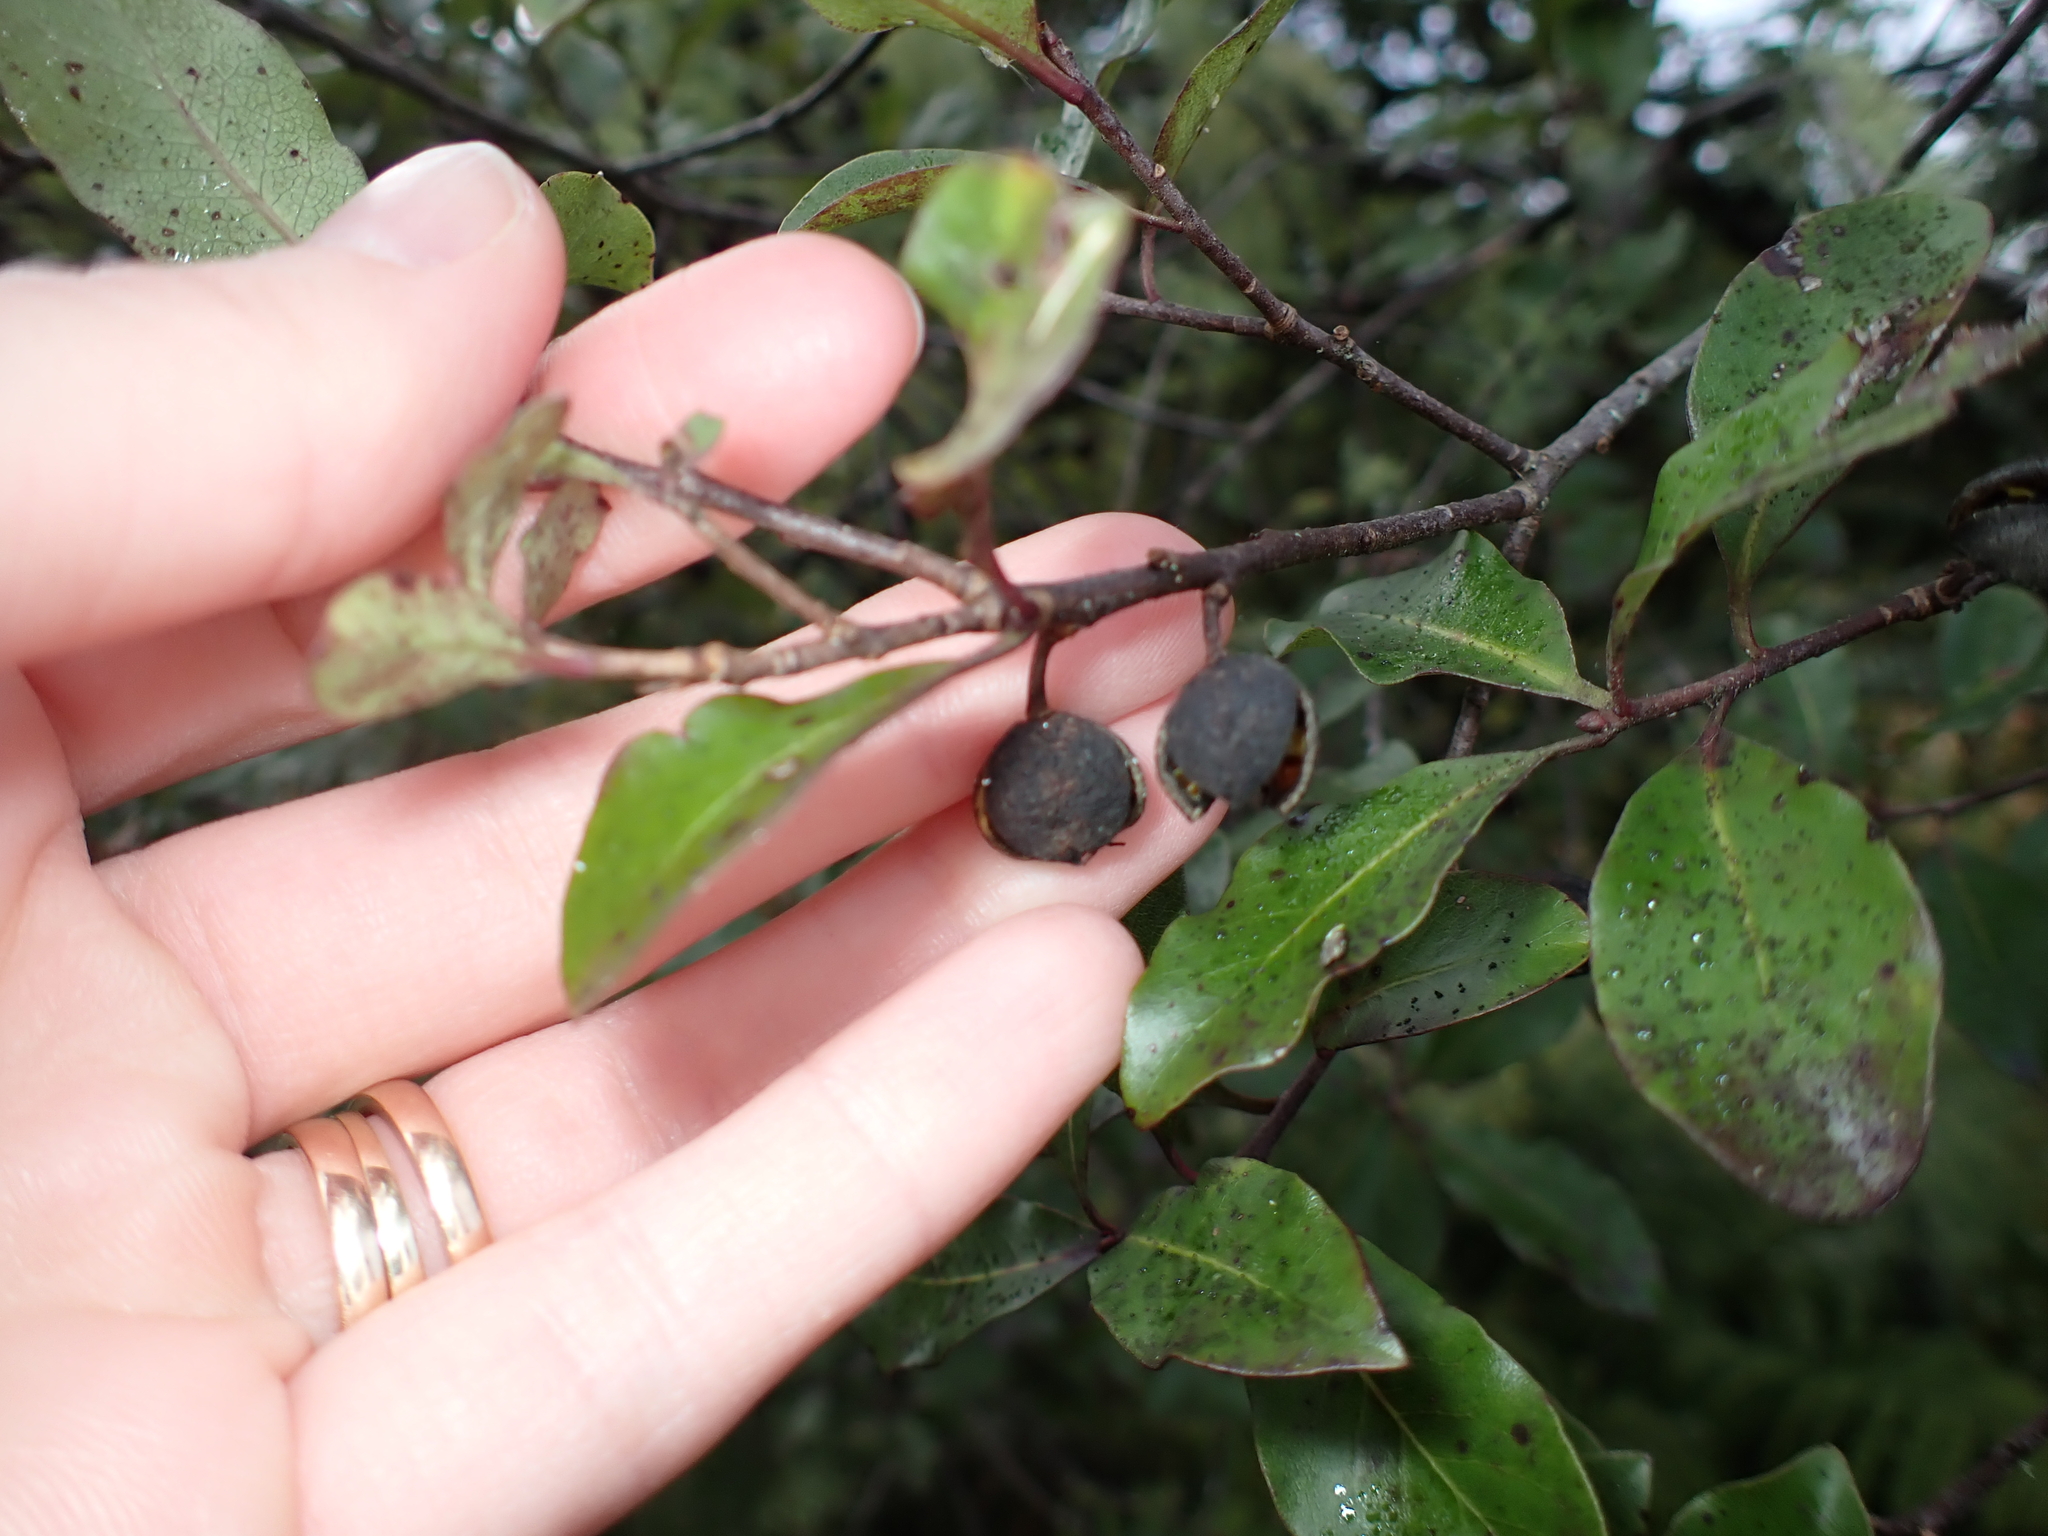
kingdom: Plantae
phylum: Tracheophyta
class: Magnoliopsida
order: Apiales
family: Pittosporaceae
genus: Pittosporum
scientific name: Pittosporum tenuifolium
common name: Kohuhu
